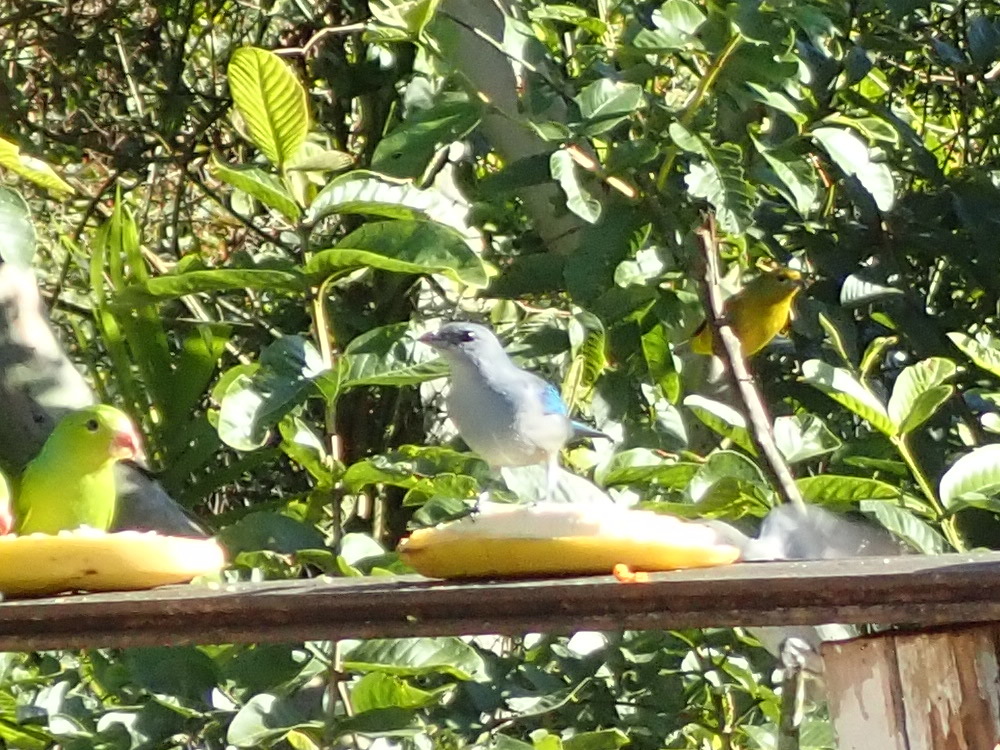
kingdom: Animalia
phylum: Chordata
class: Aves
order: Passeriformes
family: Thraupidae
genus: Thraupis
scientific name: Thraupis cyanoptera
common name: Azure-shouldered tanager
